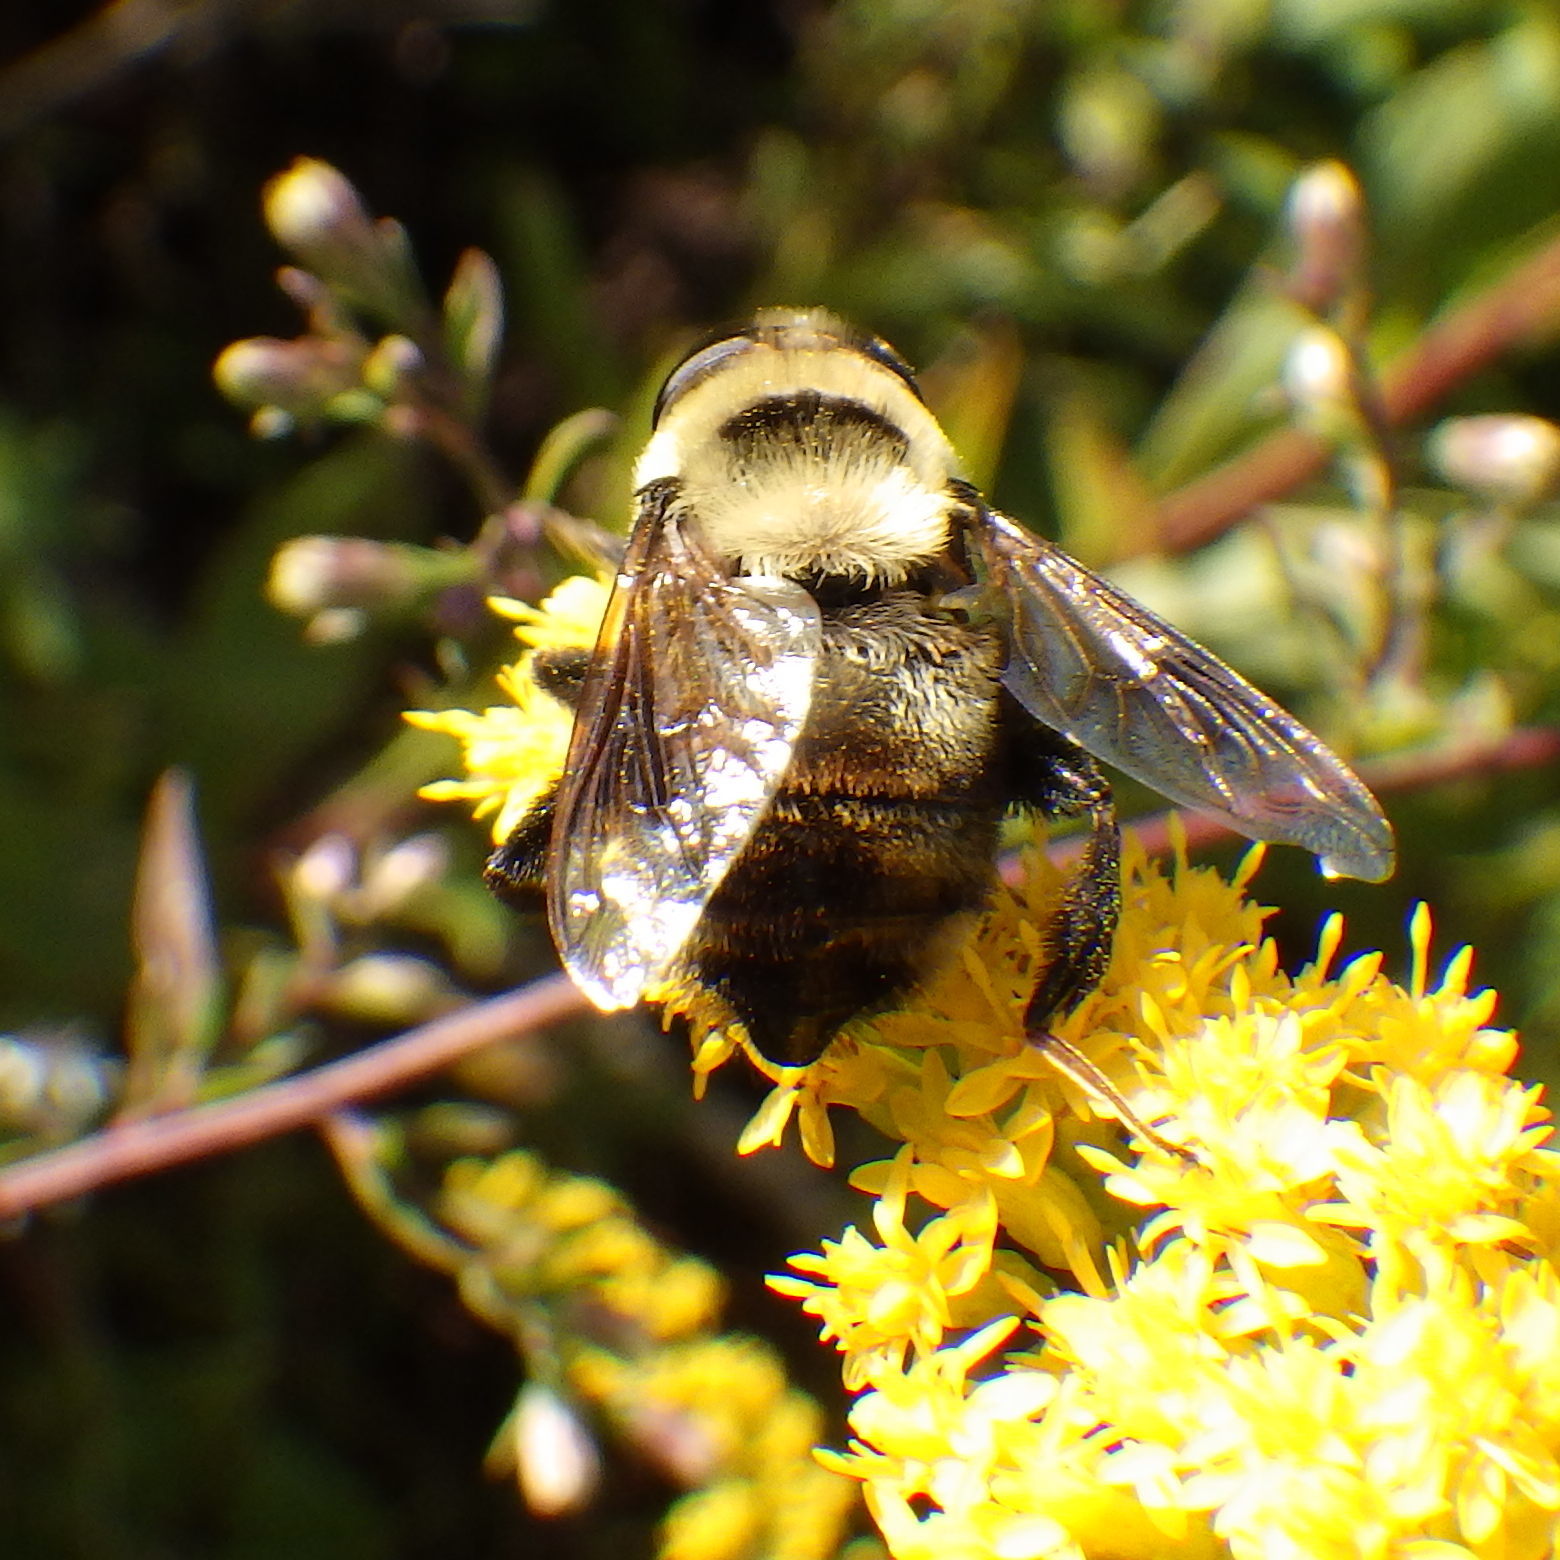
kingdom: Animalia
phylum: Arthropoda
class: Insecta
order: Diptera
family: Syrphidae
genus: Eristalis
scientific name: Eristalis flavipes
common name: Orange-legged drone fly
